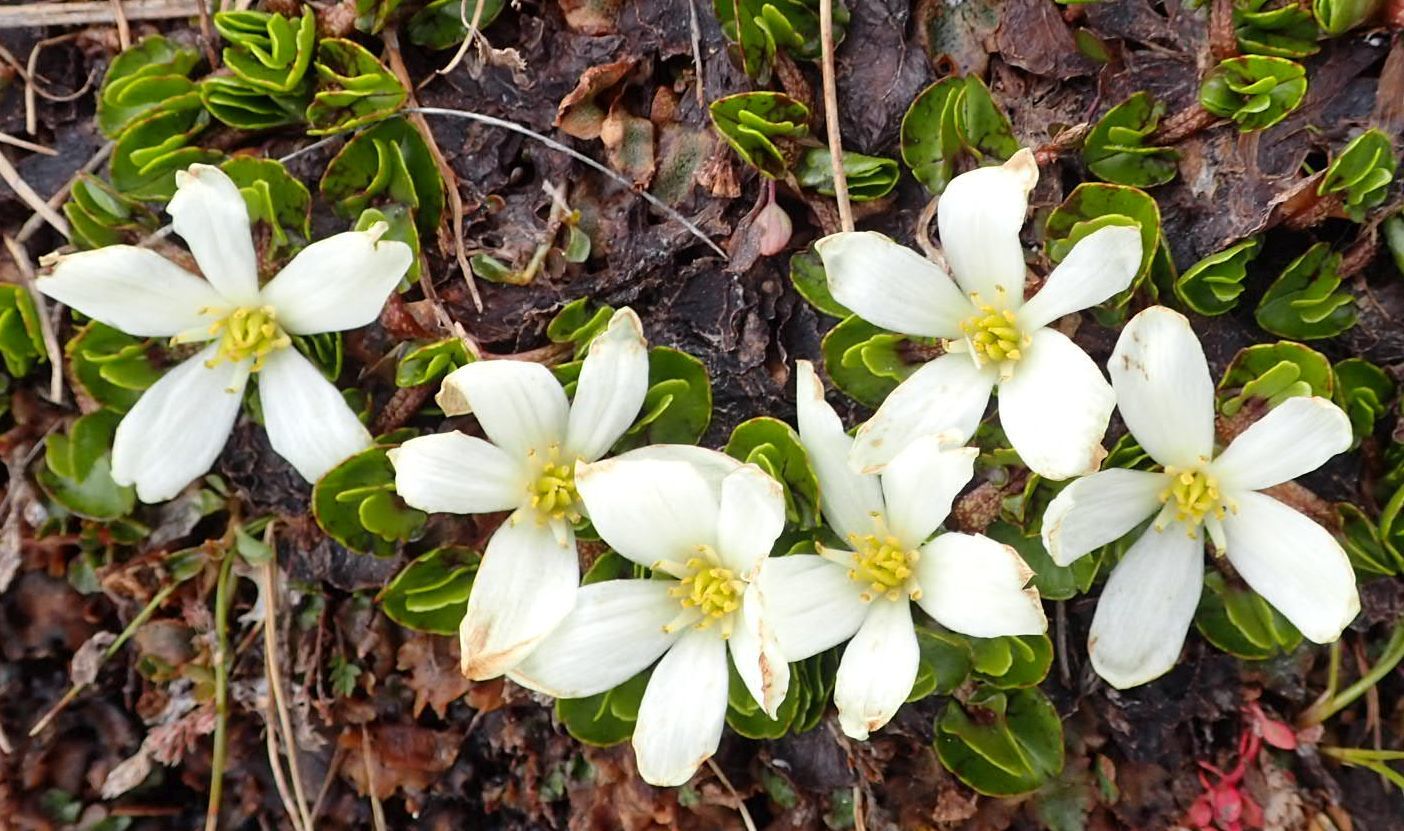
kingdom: Plantae
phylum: Tracheophyta
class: Magnoliopsida
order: Ranunculales
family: Ranunculaceae
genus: Caltha
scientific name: Caltha obtusa
